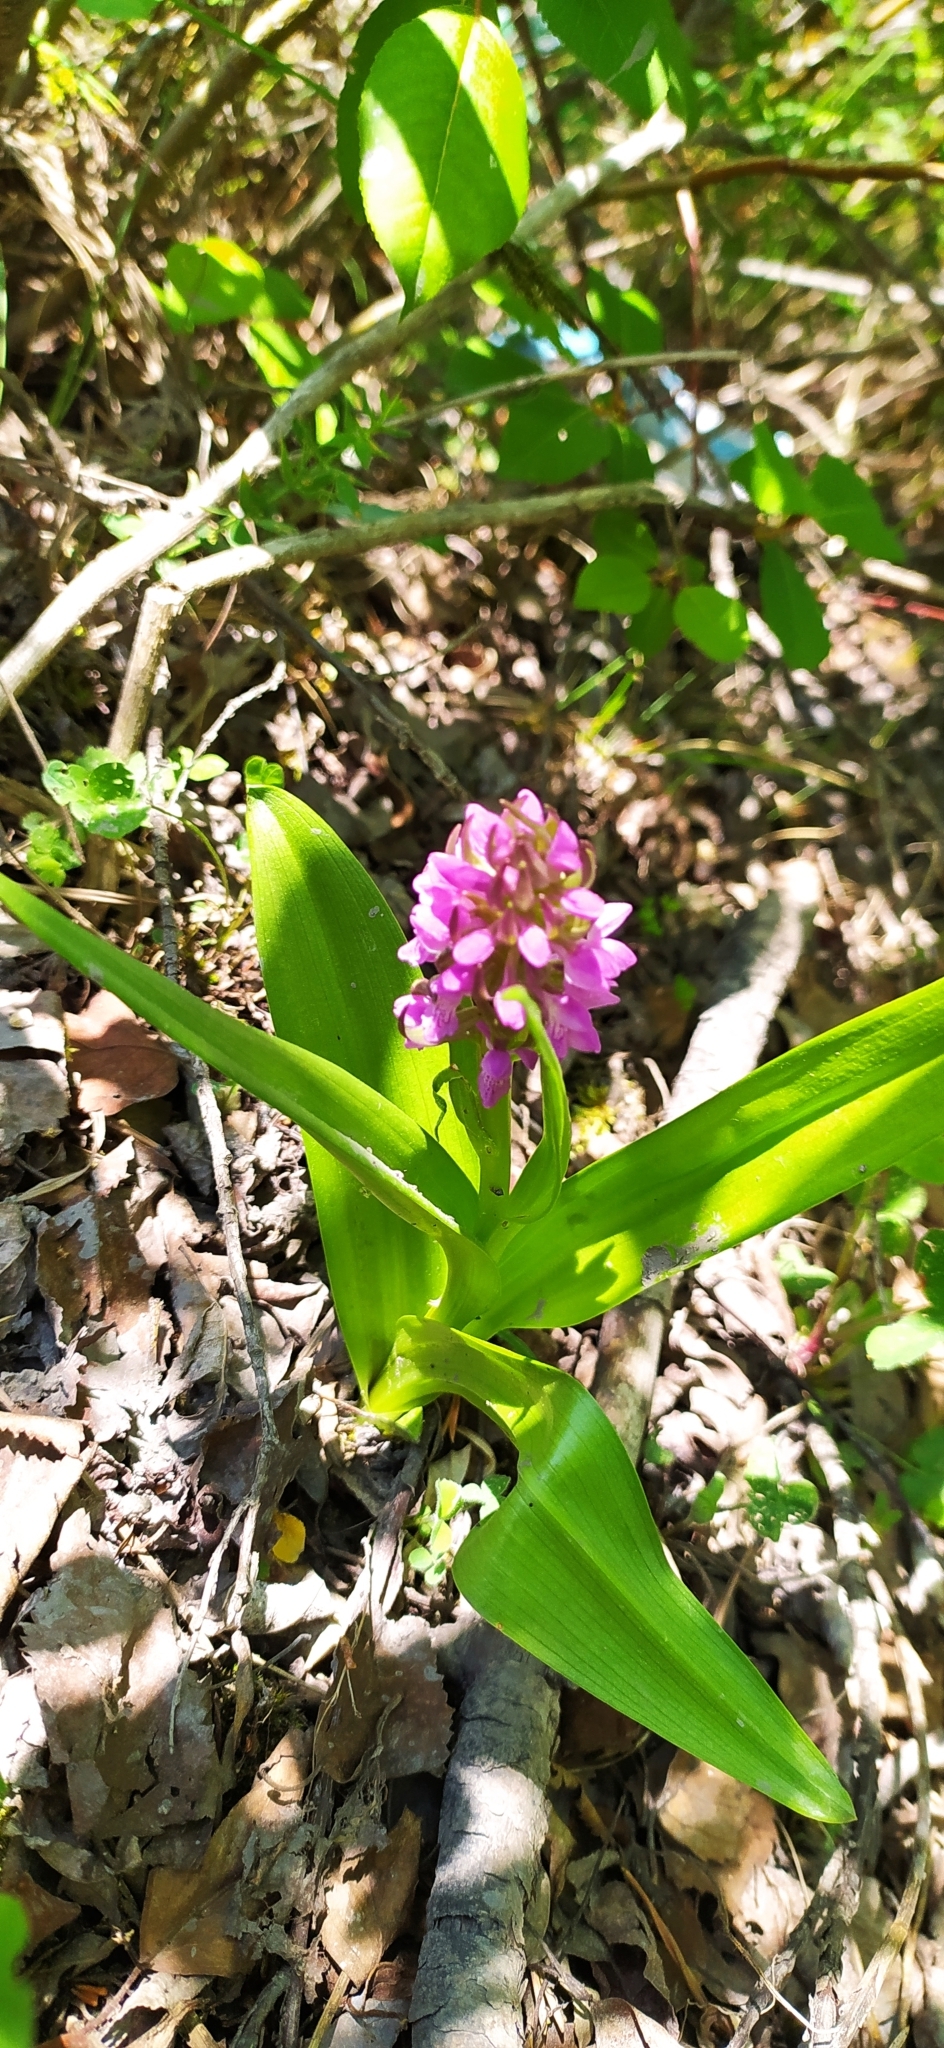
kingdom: Plantae
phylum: Tracheophyta
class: Liliopsida
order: Asparagales
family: Orchidaceae
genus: Dactylorhiza
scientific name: Dactylorhiza incarnata
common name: Early marsh-orchid
